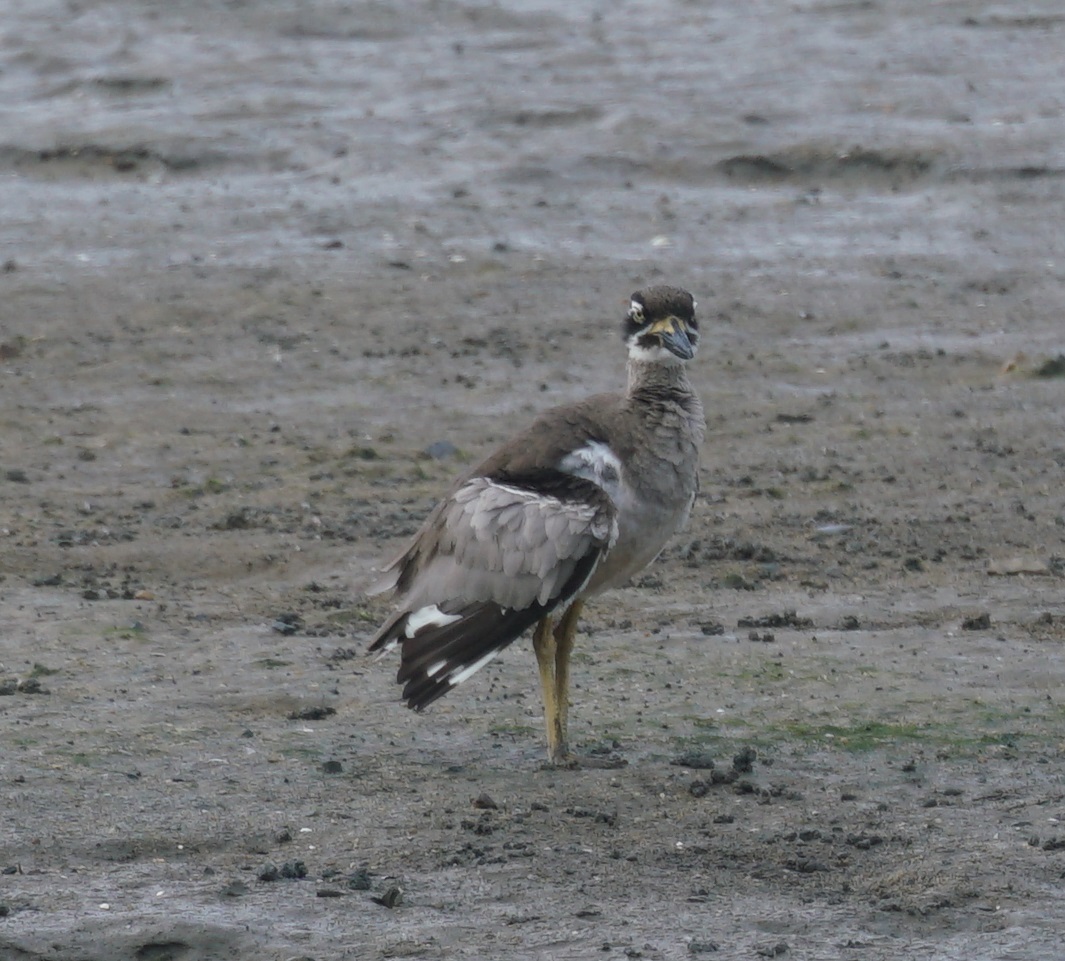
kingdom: Animalia
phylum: Chordata
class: Aves
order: Charadriiformes
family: Burhinidae
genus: Esacus
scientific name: Esacus magnirostris
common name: Beach stone-curlew
